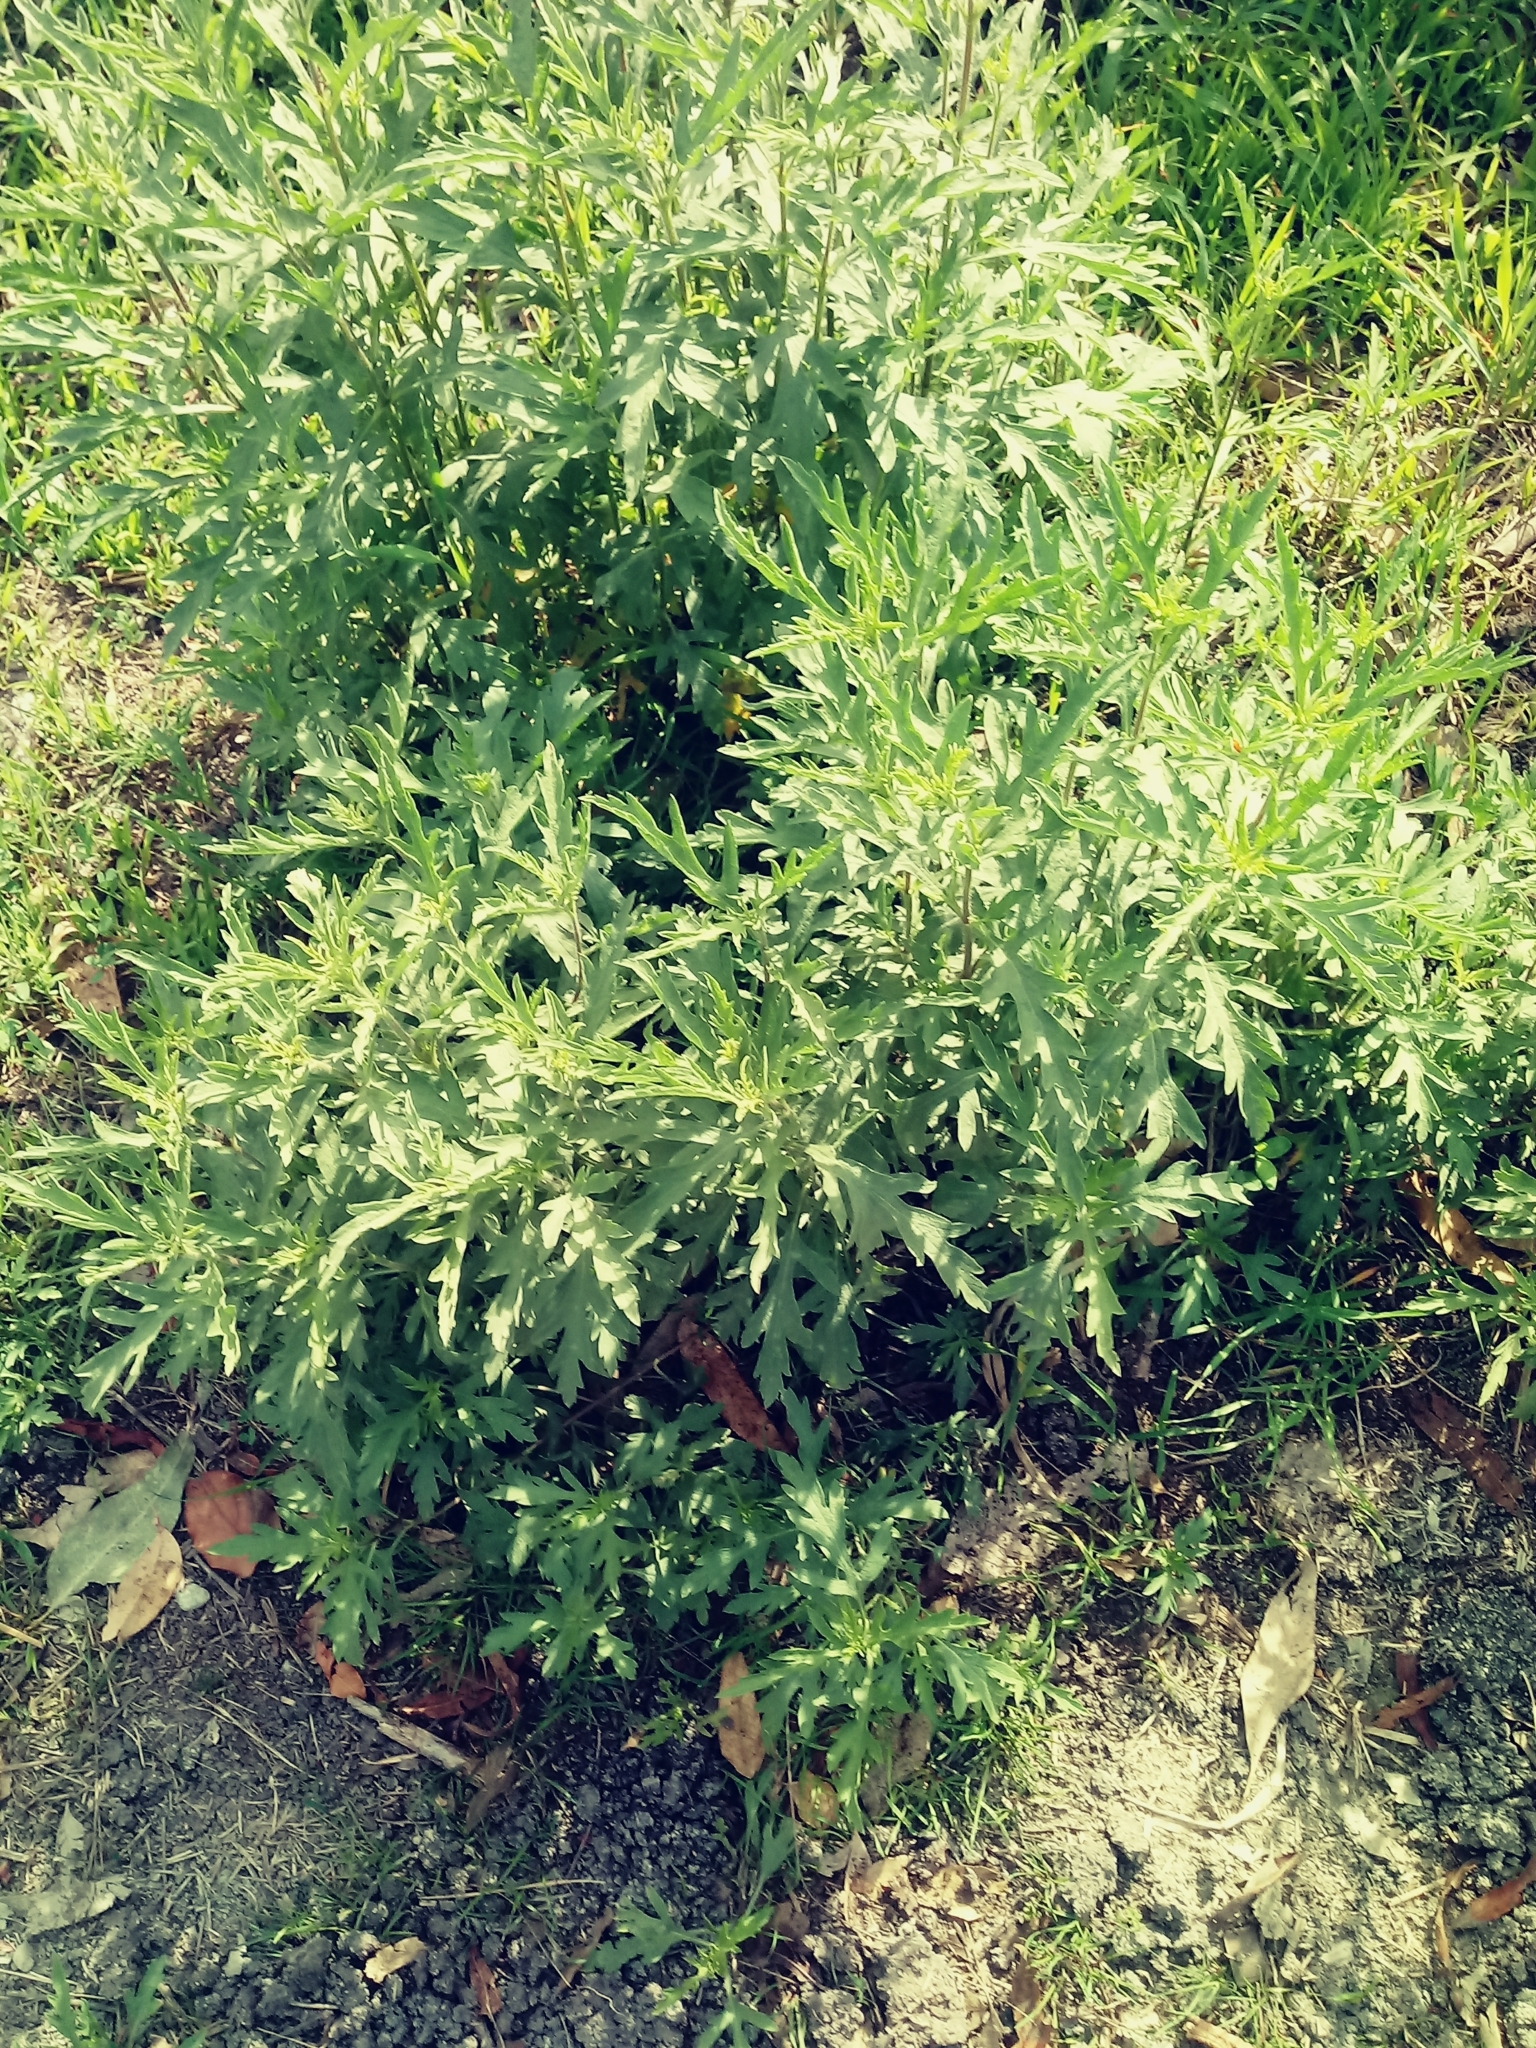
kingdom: Plantae
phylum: Tracheophyta
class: Magnoliopsida
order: Asterales
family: Asteraceae
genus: Ambrosia
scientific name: Ambrosia psilostachya
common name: Perennial ragweed
